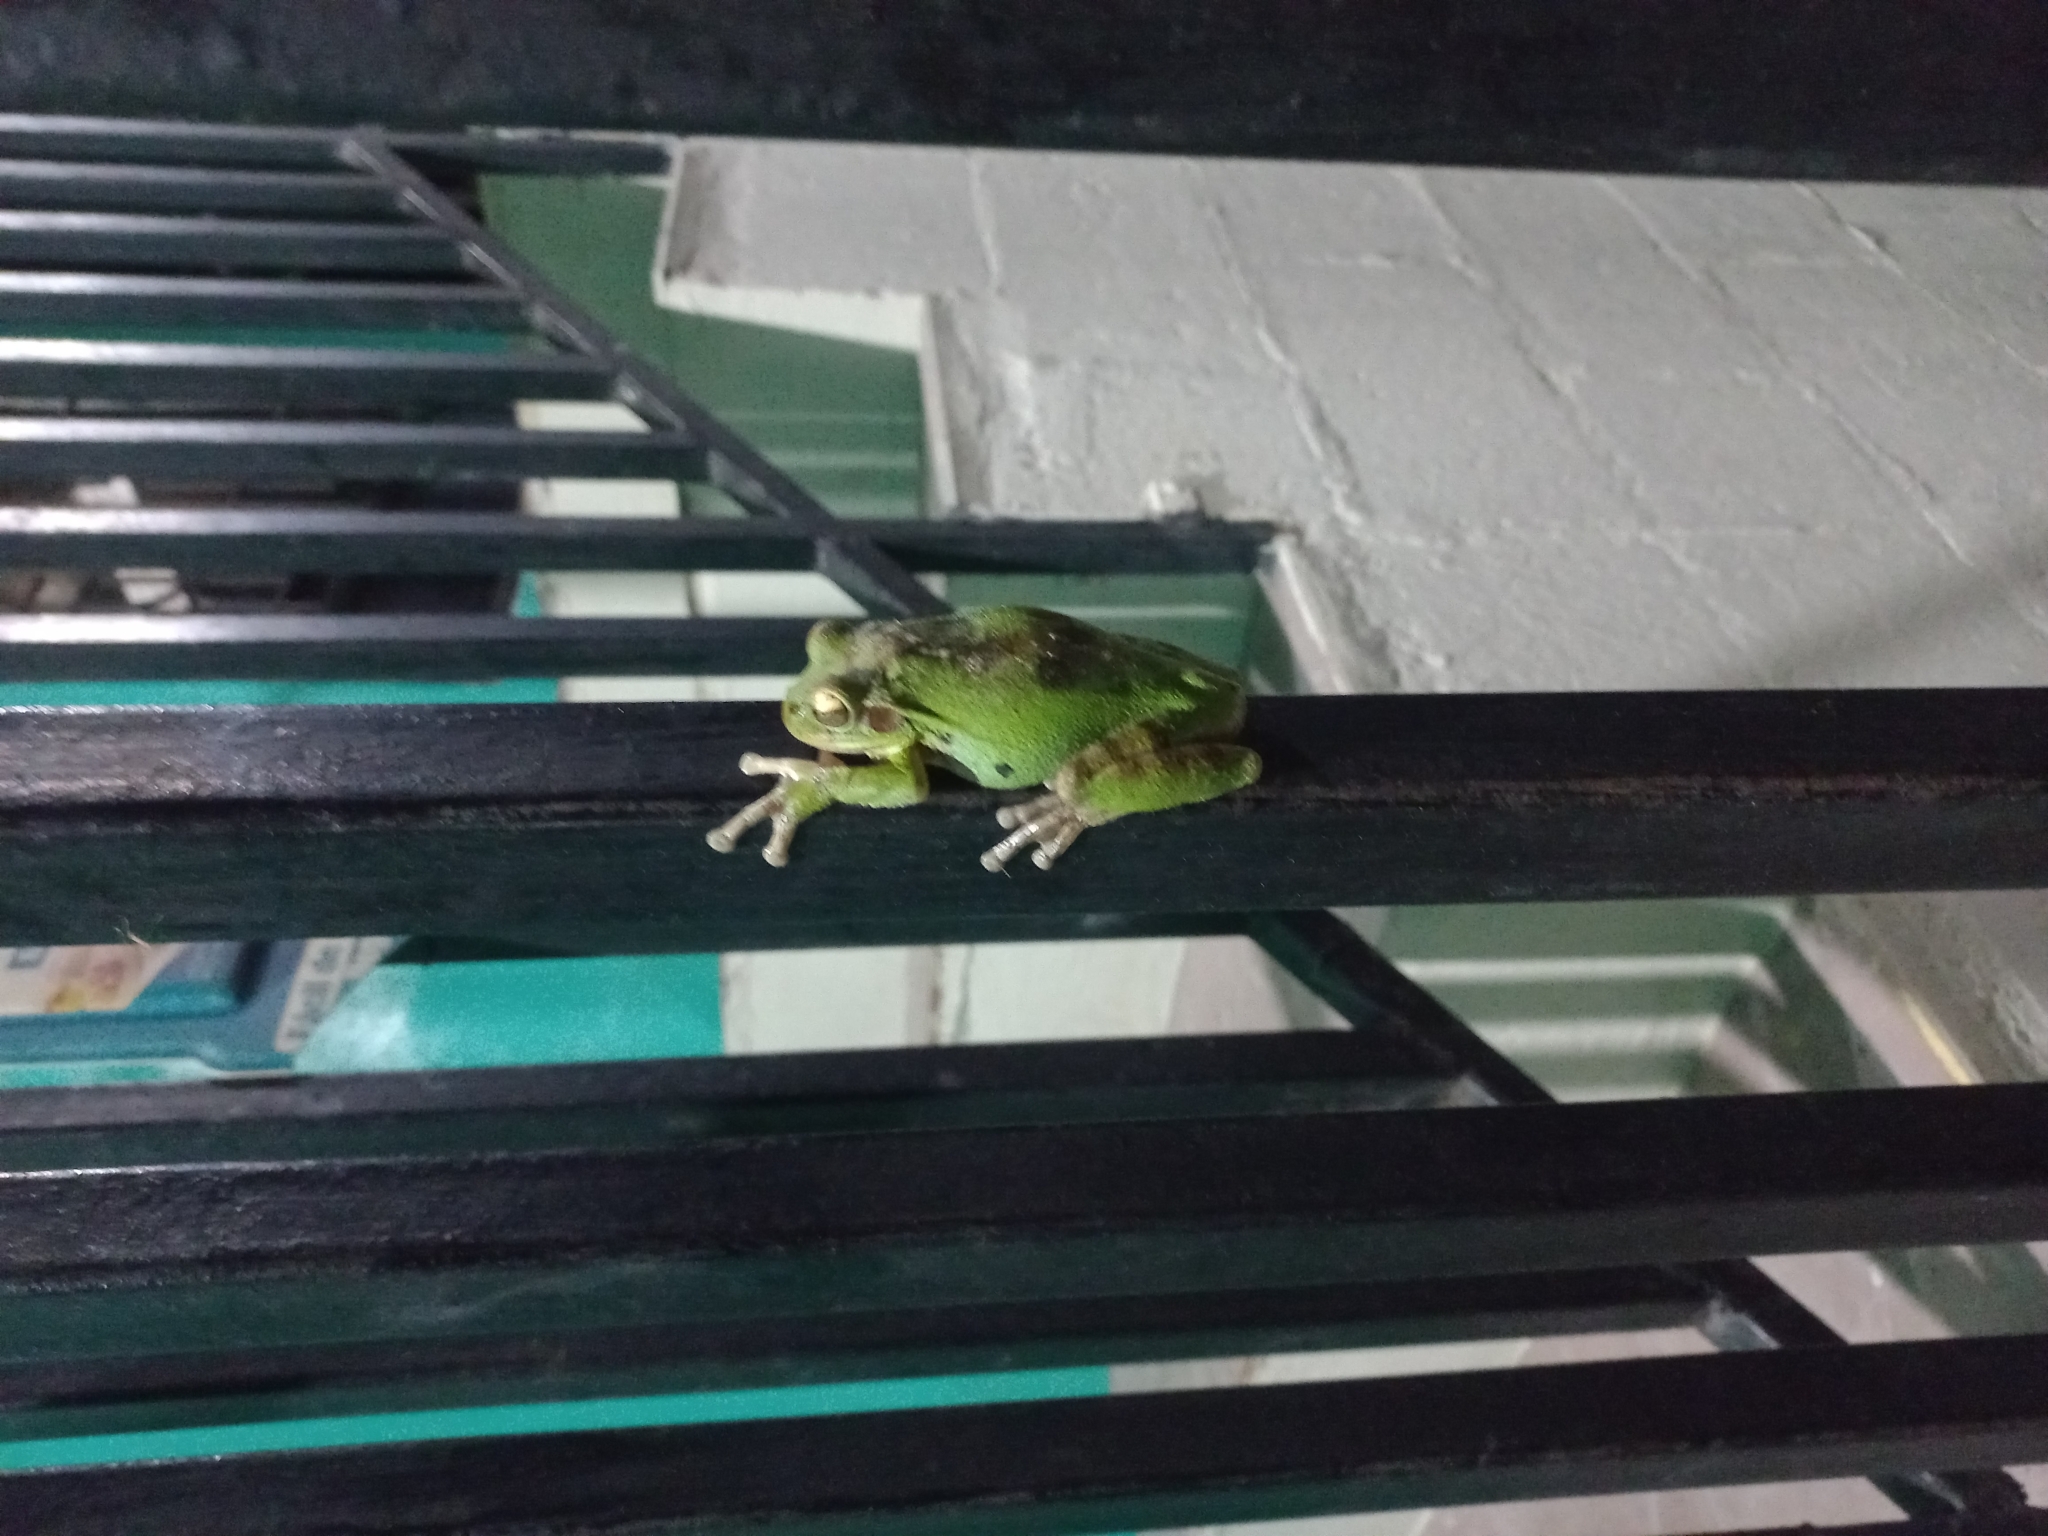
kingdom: Animalia
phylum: Chordata
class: Amphibia
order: Anura
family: Hylidae
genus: Smilisca
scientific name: Smilisca baudinii
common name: Mexican smilisca
